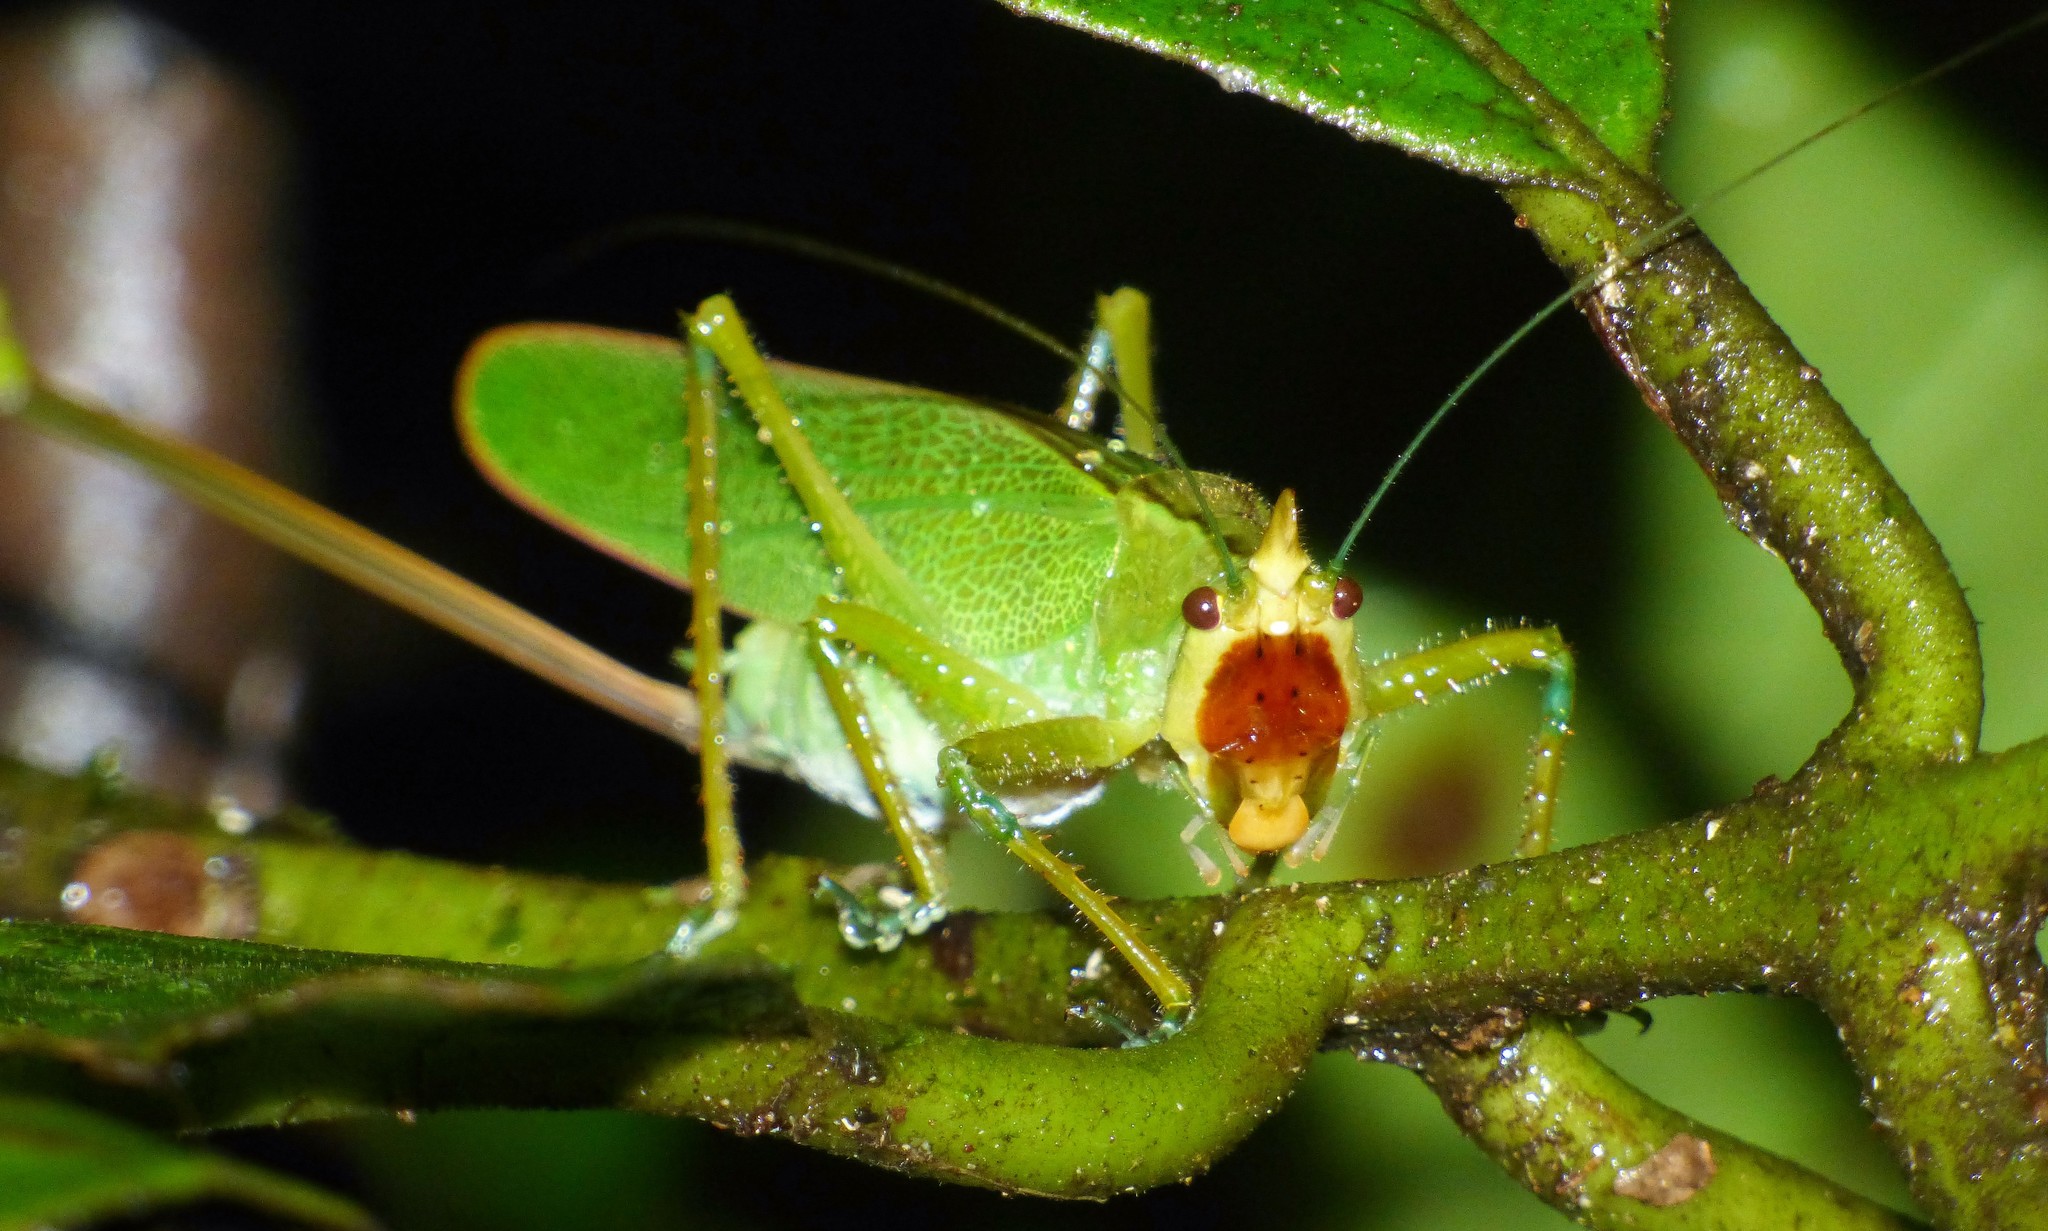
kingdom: Animalia
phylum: Arthropoda
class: Insecta
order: Orthoptera
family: Tettigoniidae
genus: Copiphora
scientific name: Copiphora hastata
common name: Brown-faced spearbearer
